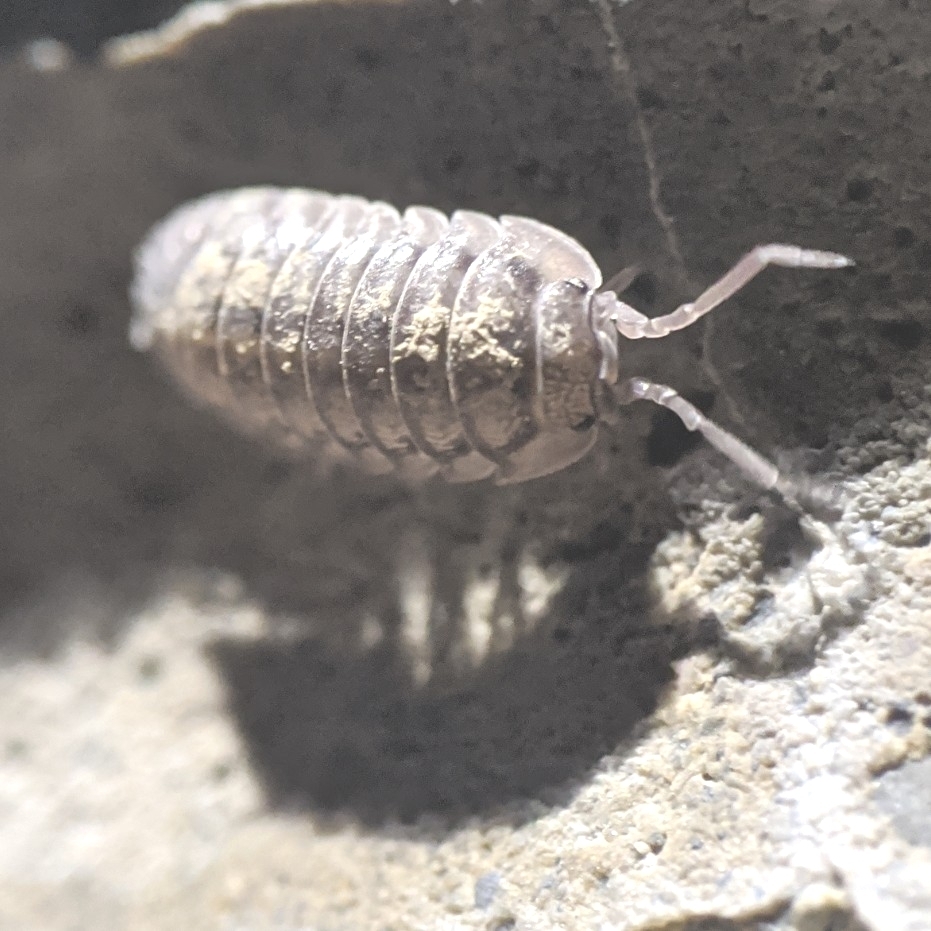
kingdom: Animalia
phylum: Arthropoda
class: Malacostraca
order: Isopoda
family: Armadillidiidae
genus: Armadillidium
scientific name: Armadillidium nasatum
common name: Isopod
